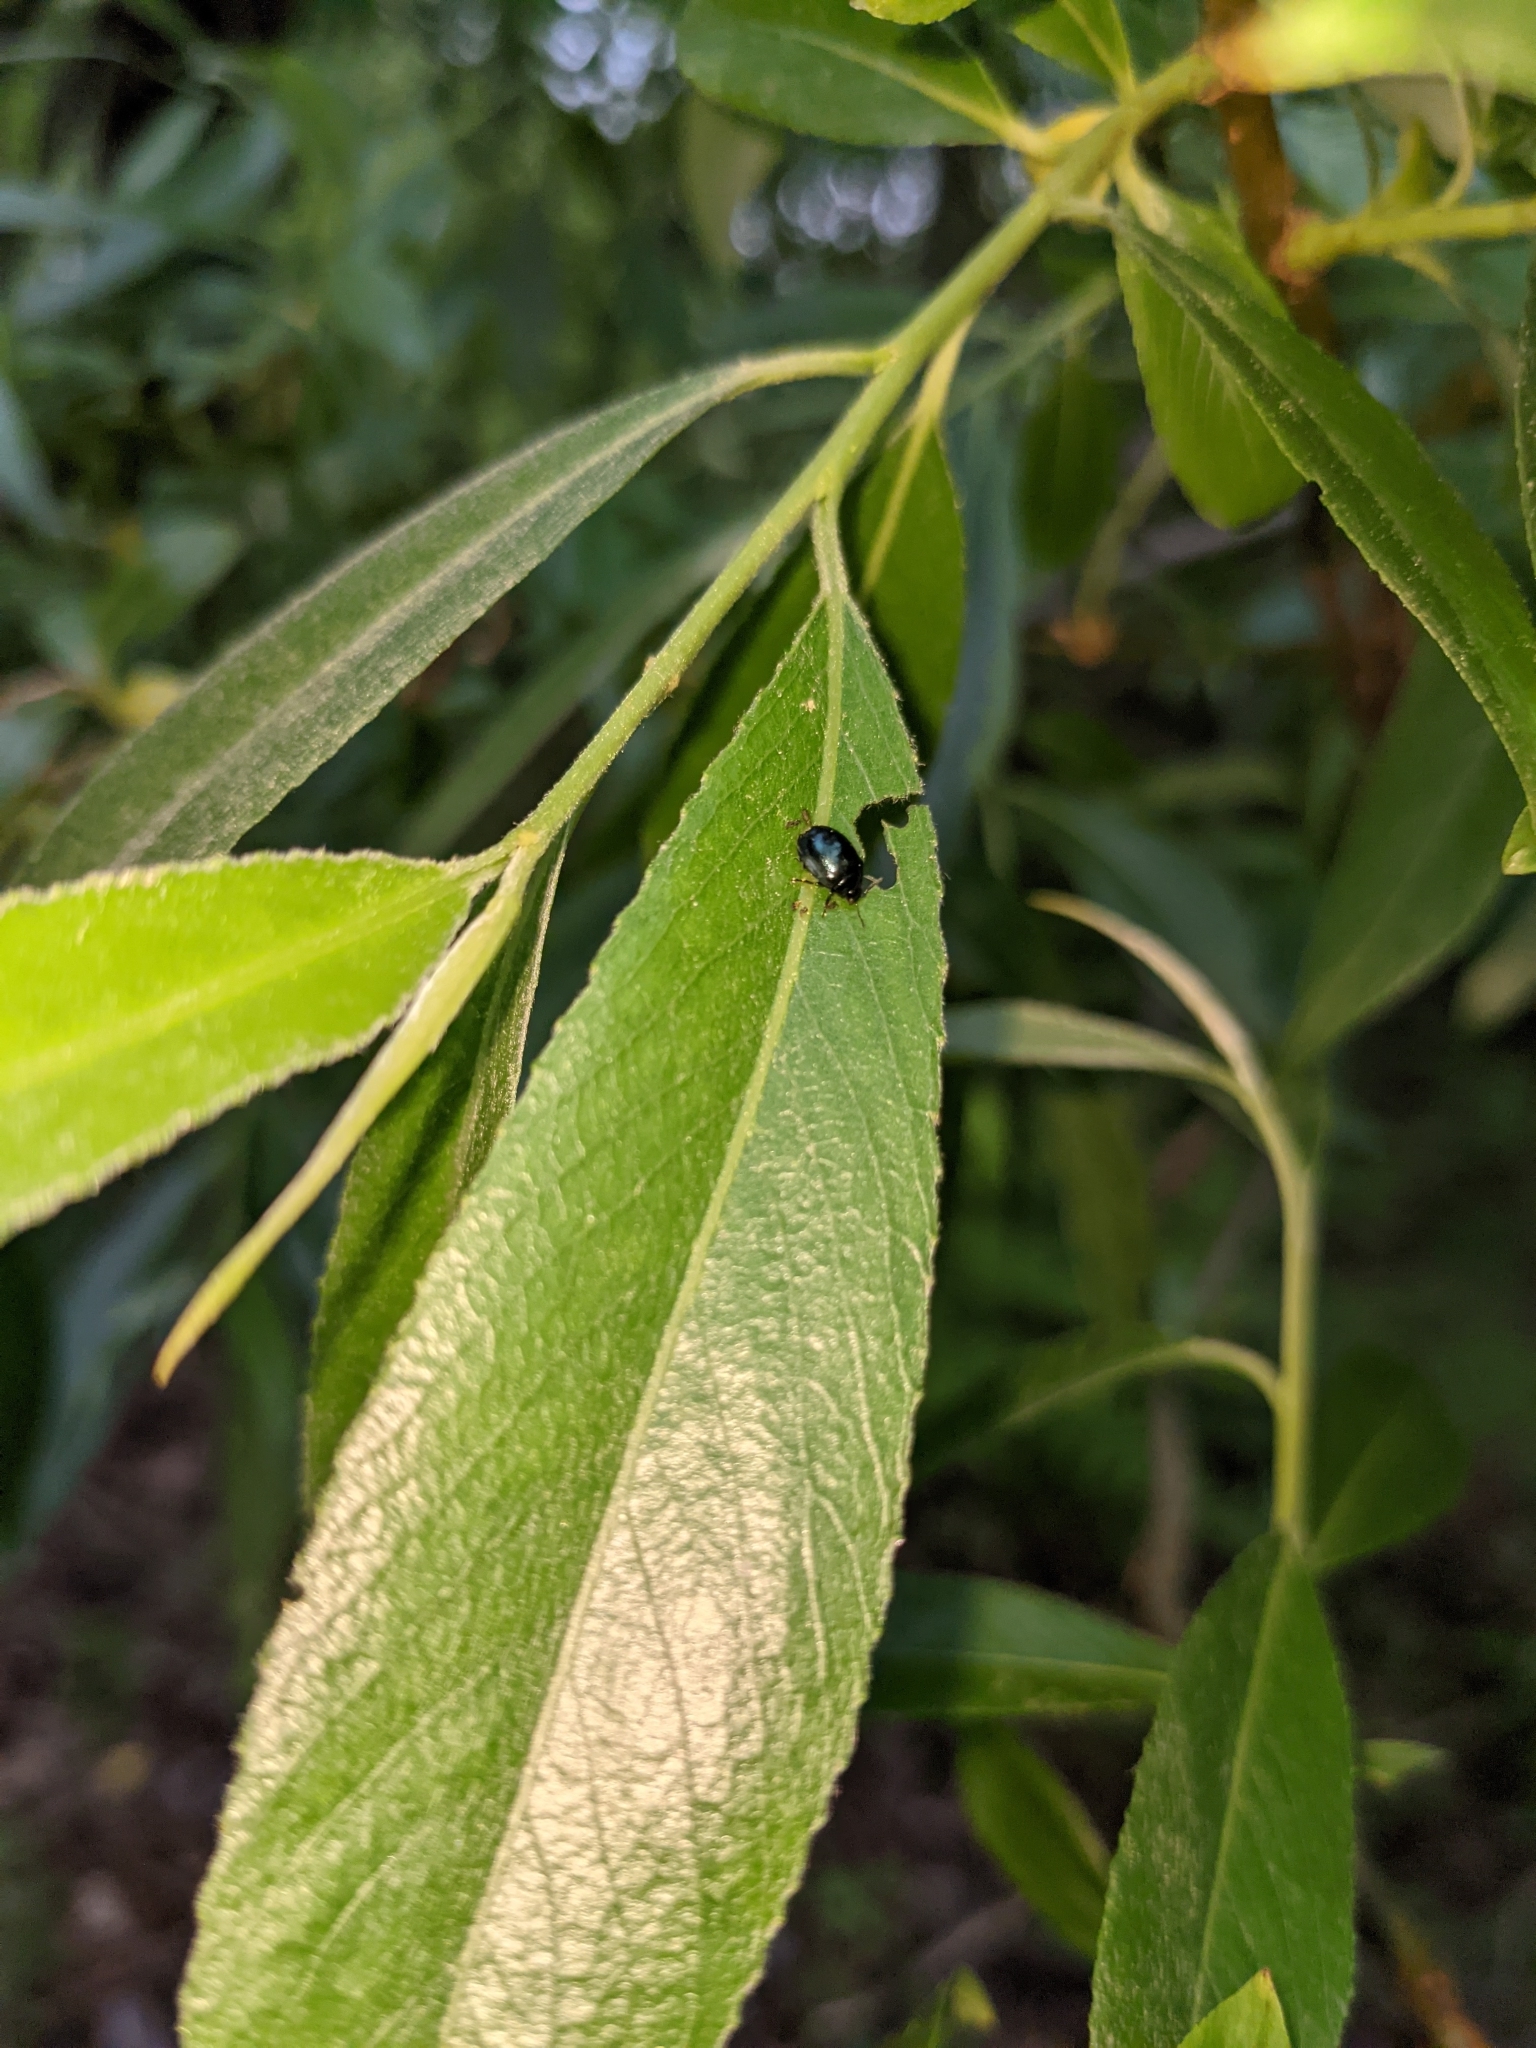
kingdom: Animalia
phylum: Arthropoda
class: Insecta
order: Coleoptera
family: Chrysomelidae
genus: Plagiodera
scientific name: Plagiodera versicolora
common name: Imported willow leaf beetle
